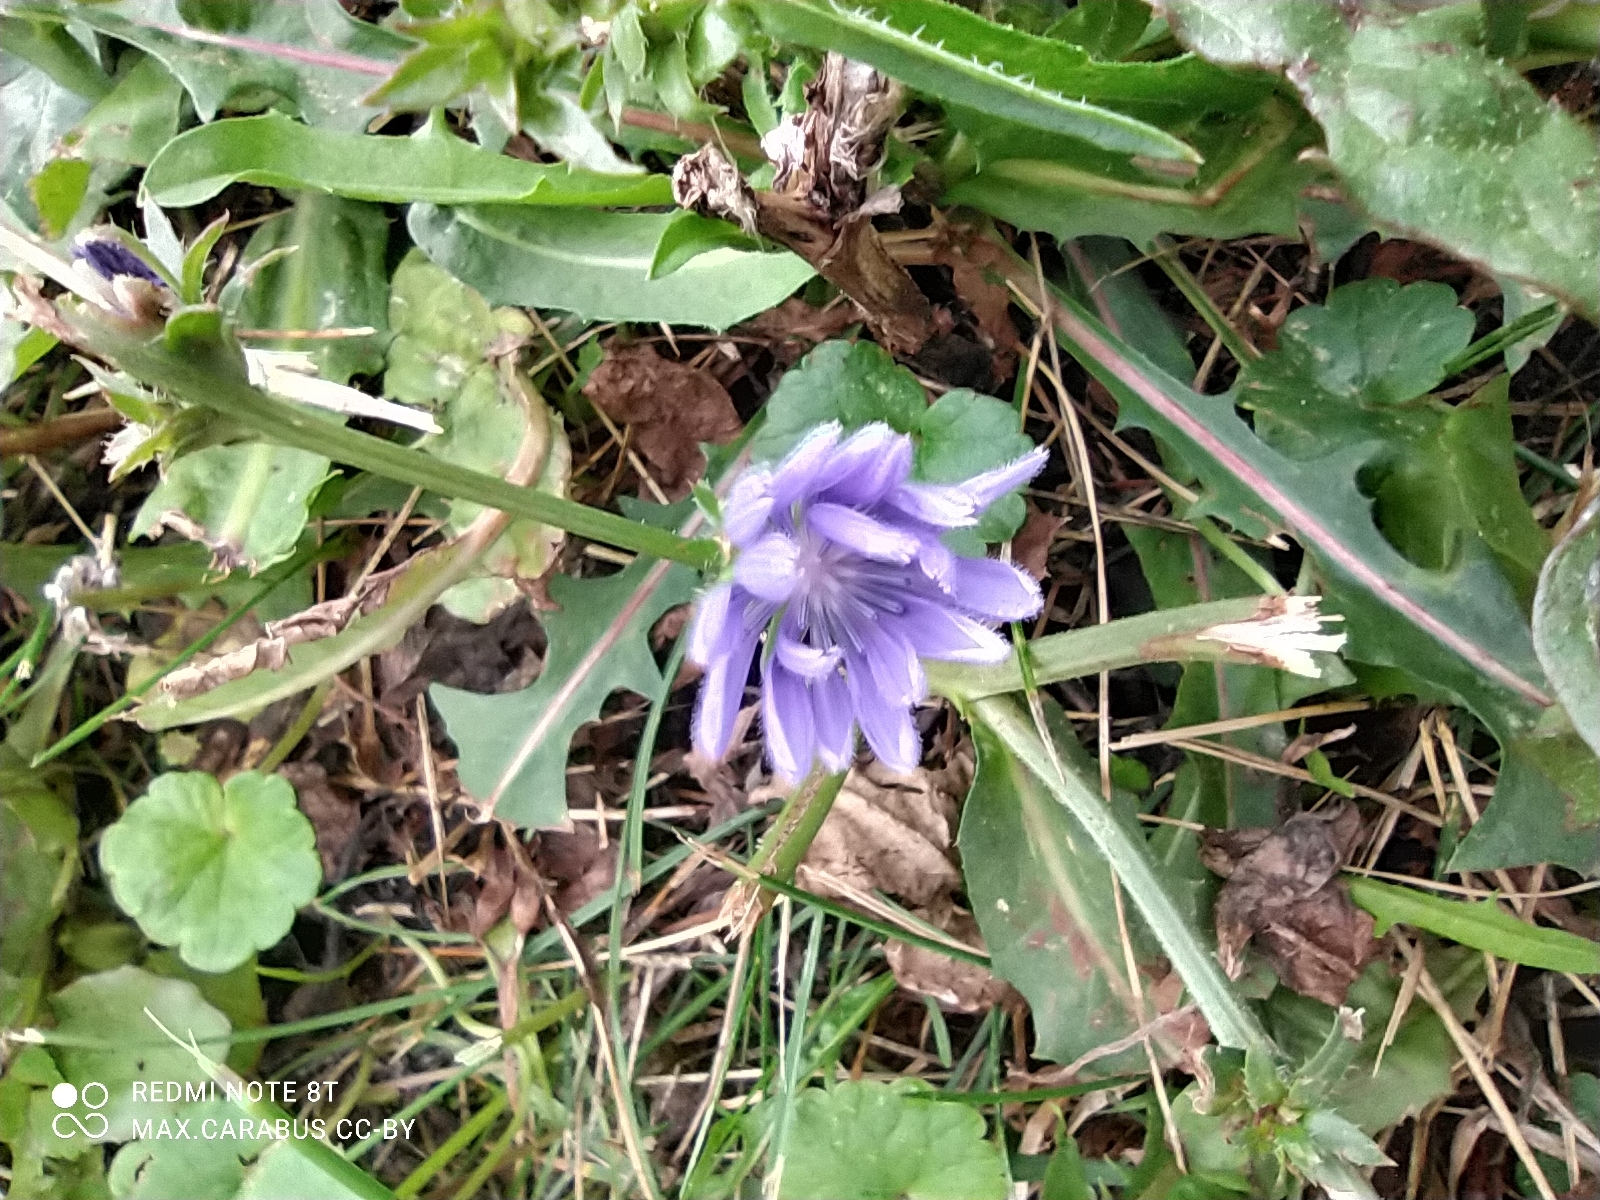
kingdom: Plantae
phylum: Tracheophyta
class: Magnoliopsida
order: Asterales
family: Asteraceae
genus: Cichorium
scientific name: Cichorium intybus
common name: Chicory
